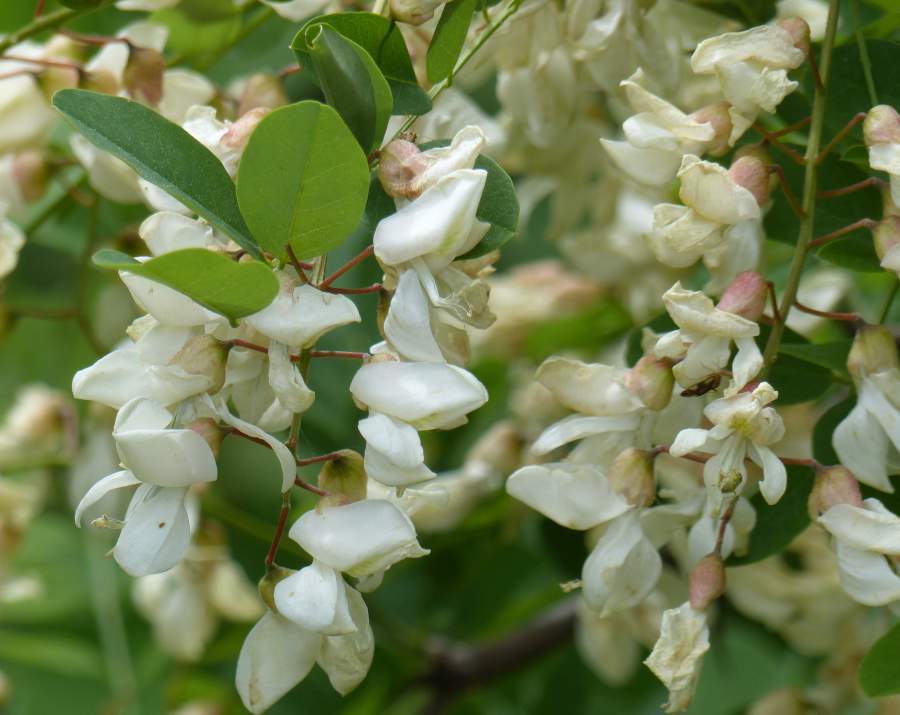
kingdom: Plantae
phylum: Tracheophyta
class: Magnoliopsida
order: Fabales
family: Fabaceae
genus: Robinia
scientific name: Robinia pseudoacacia
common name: Black locust
